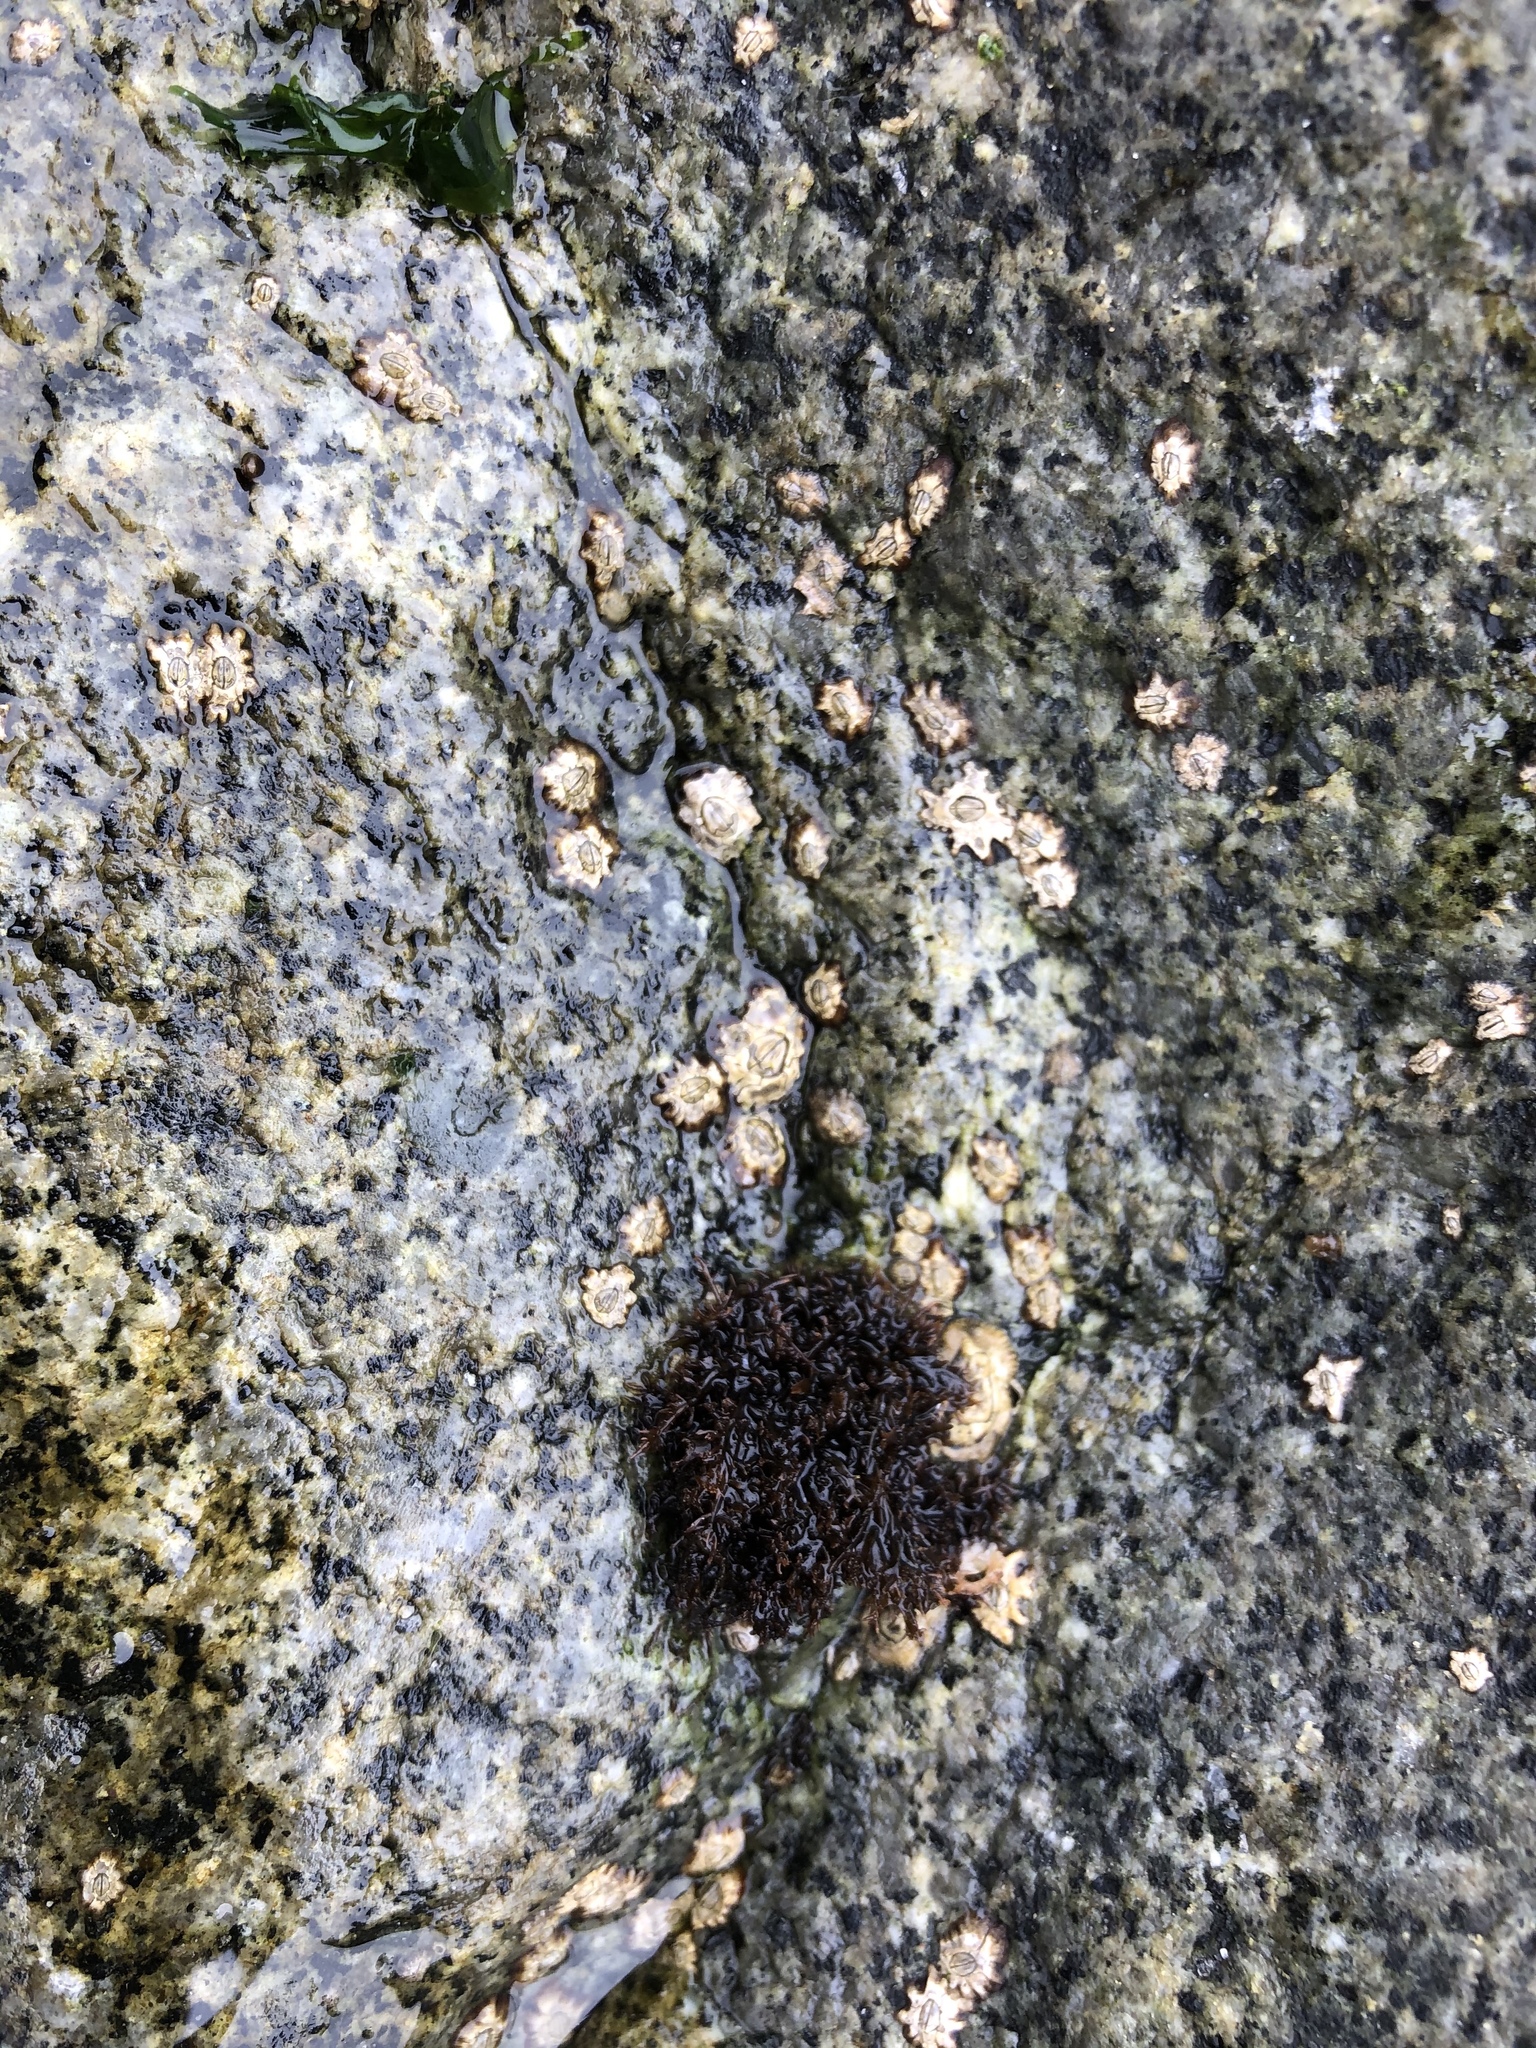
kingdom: Animalia
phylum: Arthropoda
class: Maxillopoda
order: Sessilia
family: Chthamalidae
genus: Jehlius
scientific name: Jehlius cirratus
